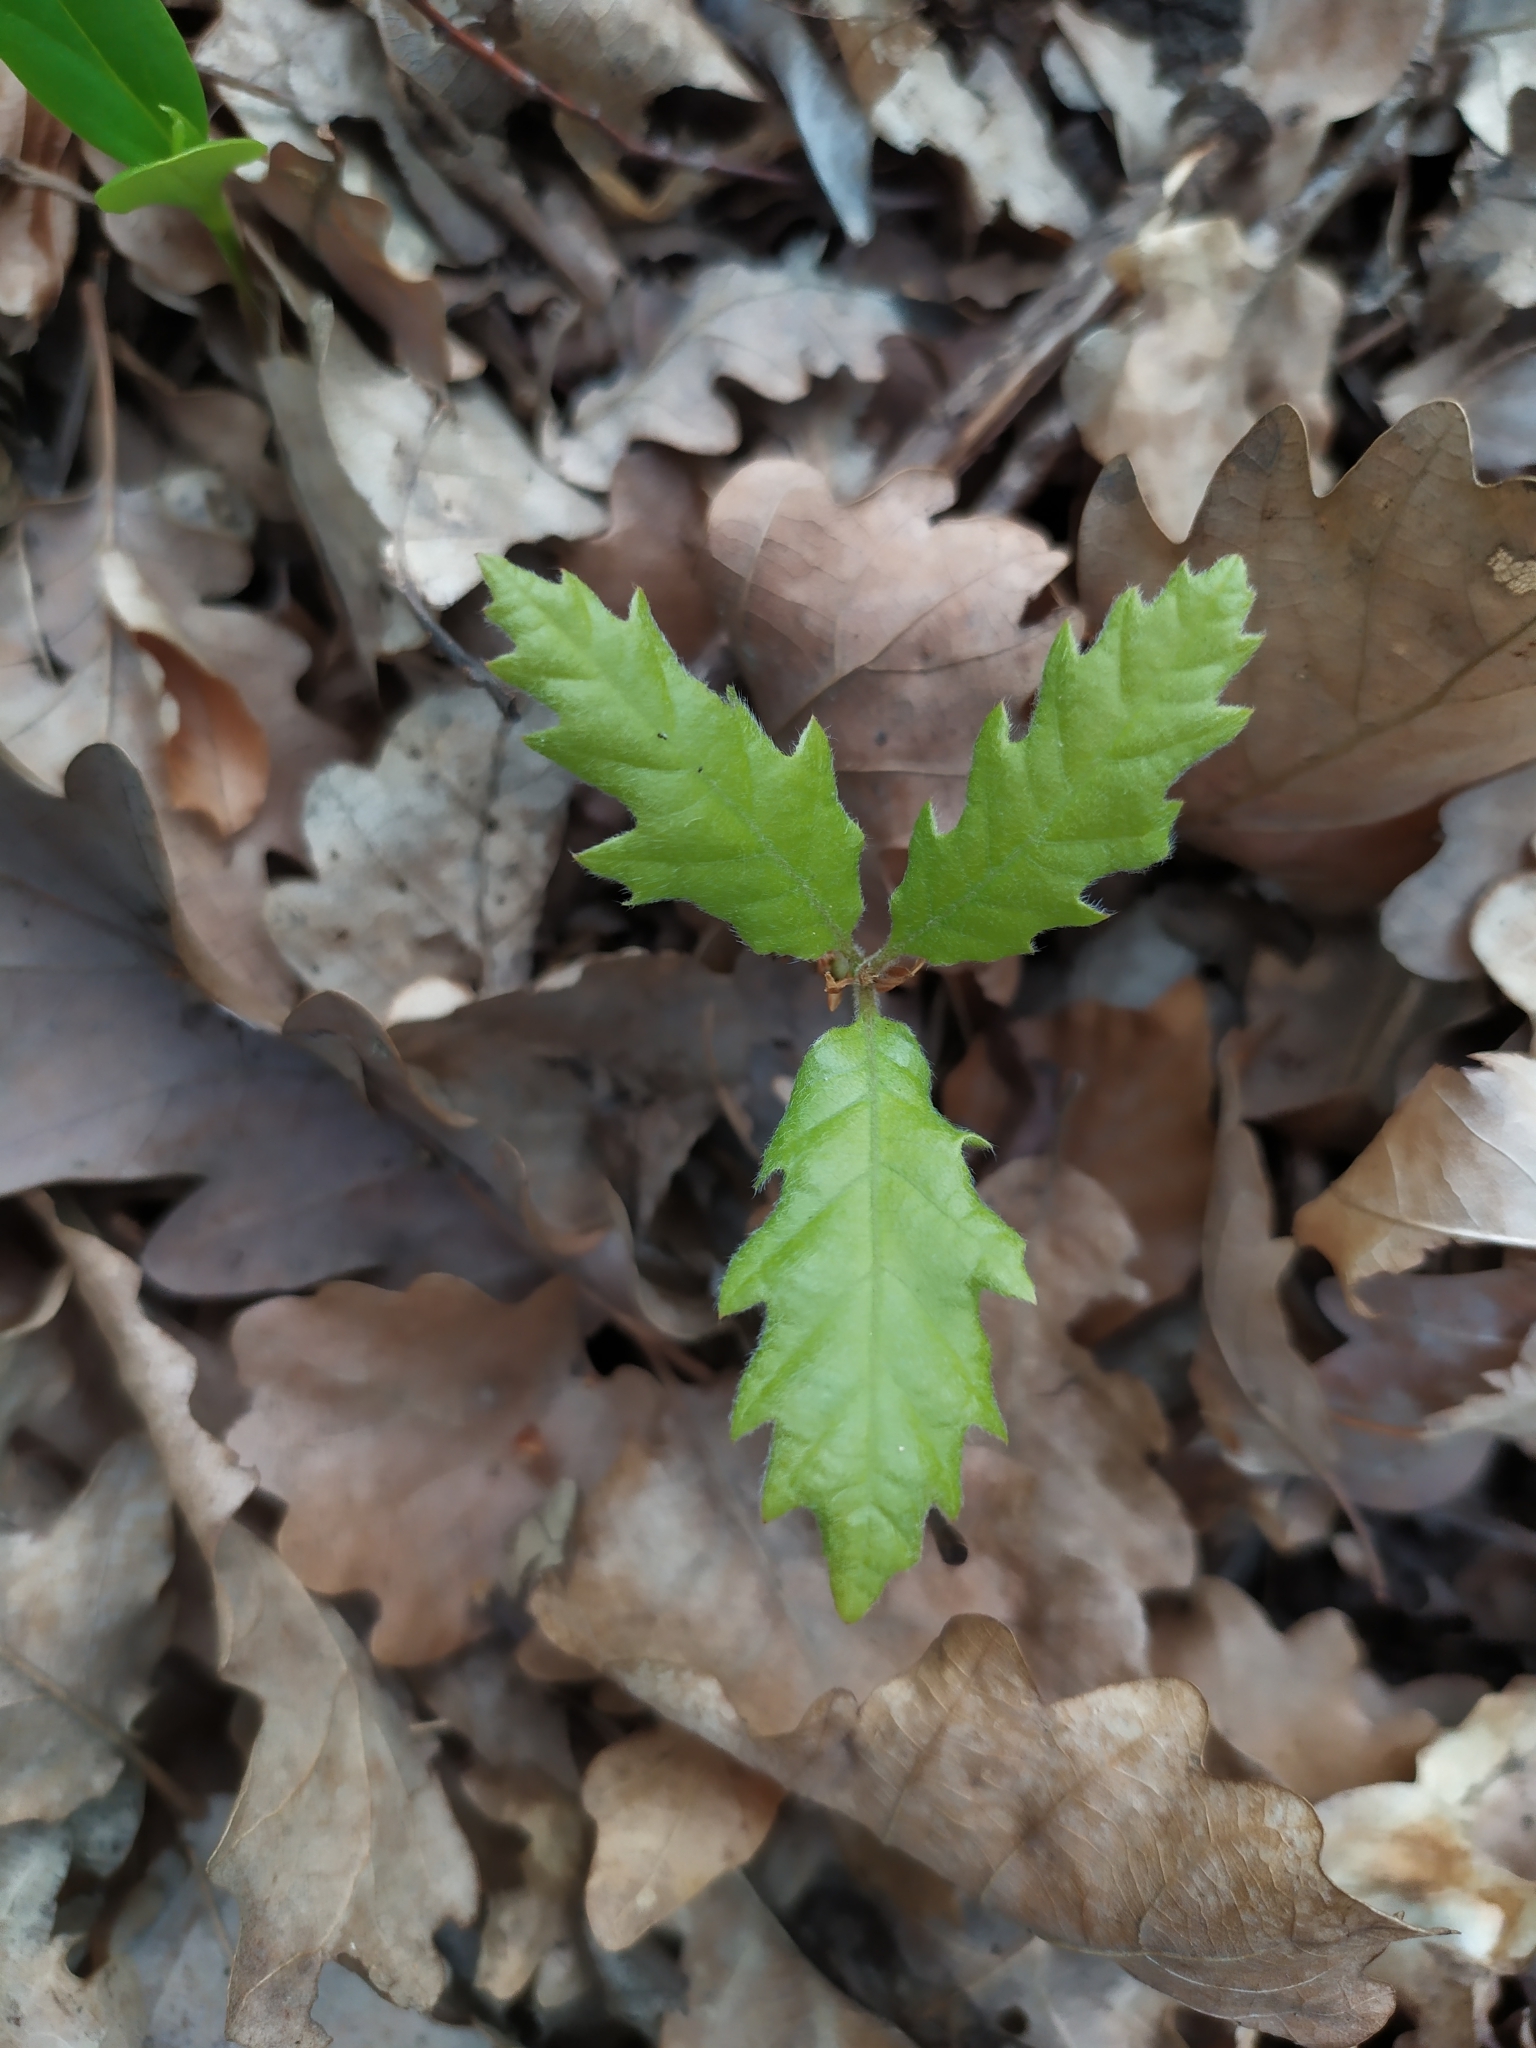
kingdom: Plantae
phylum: Tracheophyta
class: Magnoliopsida
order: Fagales
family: Fagaceae
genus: Quercus
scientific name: Quercus cerris
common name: Turkey oak
